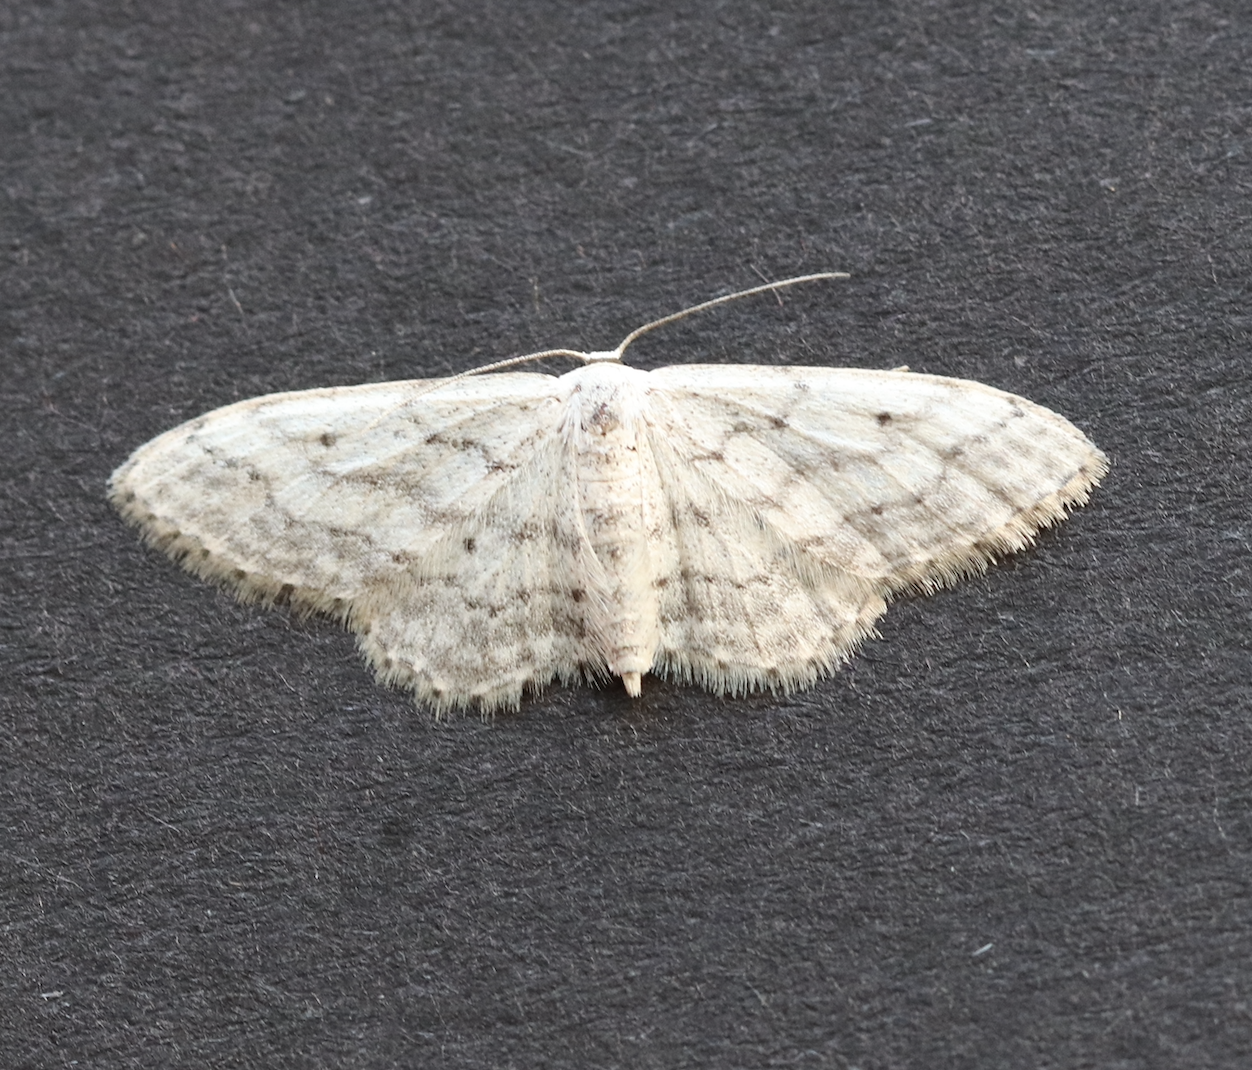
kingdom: Animalia
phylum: Arthropoda
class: Insecta
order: Lepidoptera
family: Geometridae
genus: Idaea
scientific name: Idaea seriata
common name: Small dusty wave
